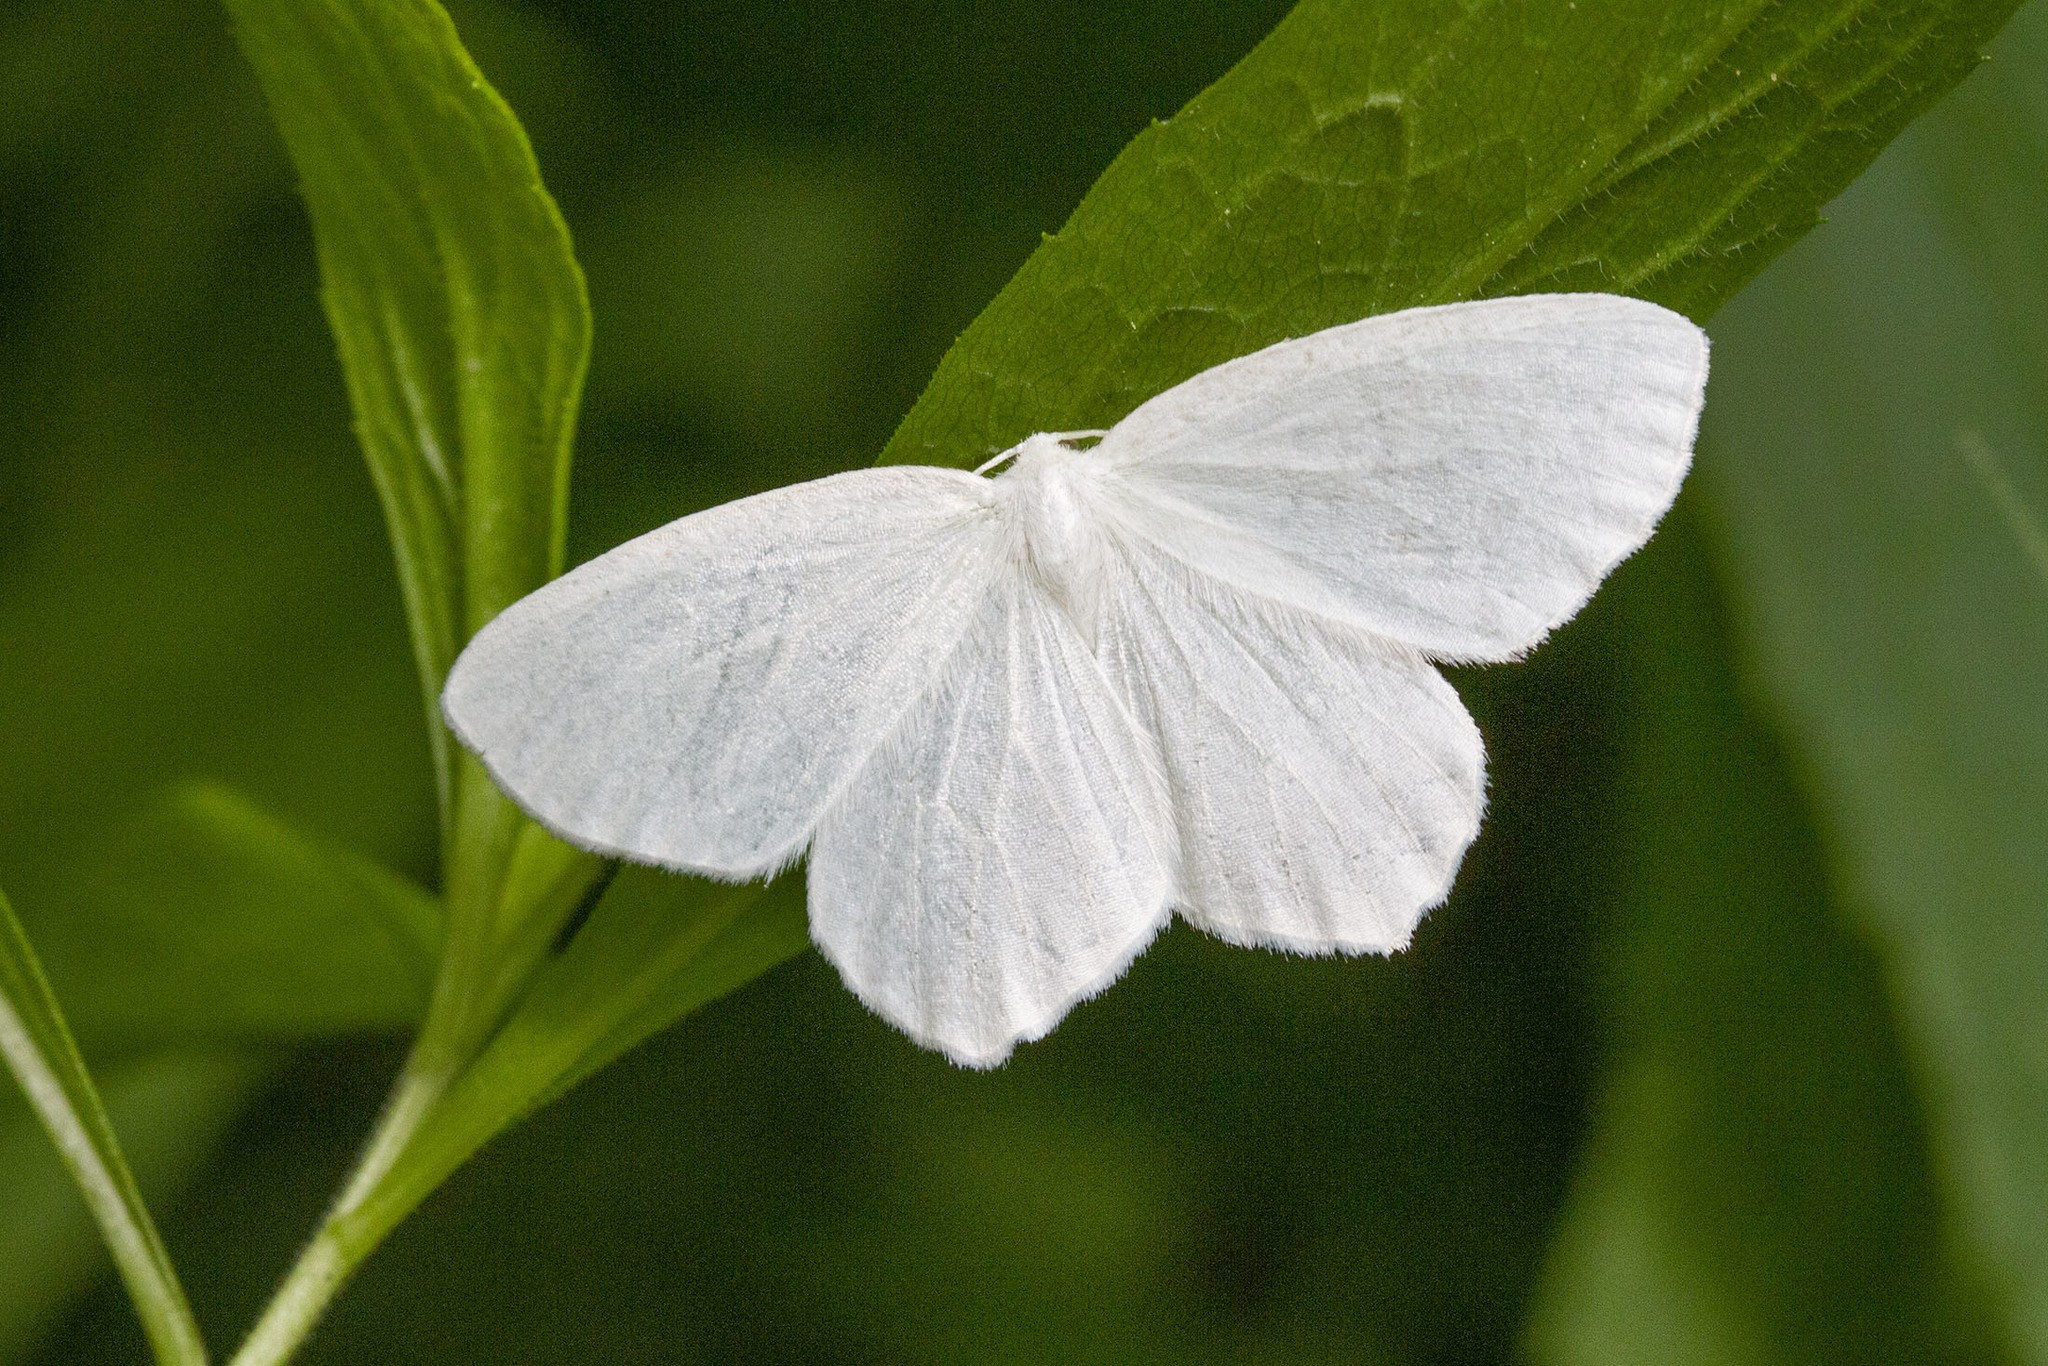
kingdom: Animalia
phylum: Arthropoda
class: Insecta
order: Lepidoptera
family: Geometridae
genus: Eugonobapta
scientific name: Eugonobapta nivosaria
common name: Snowy geometer
